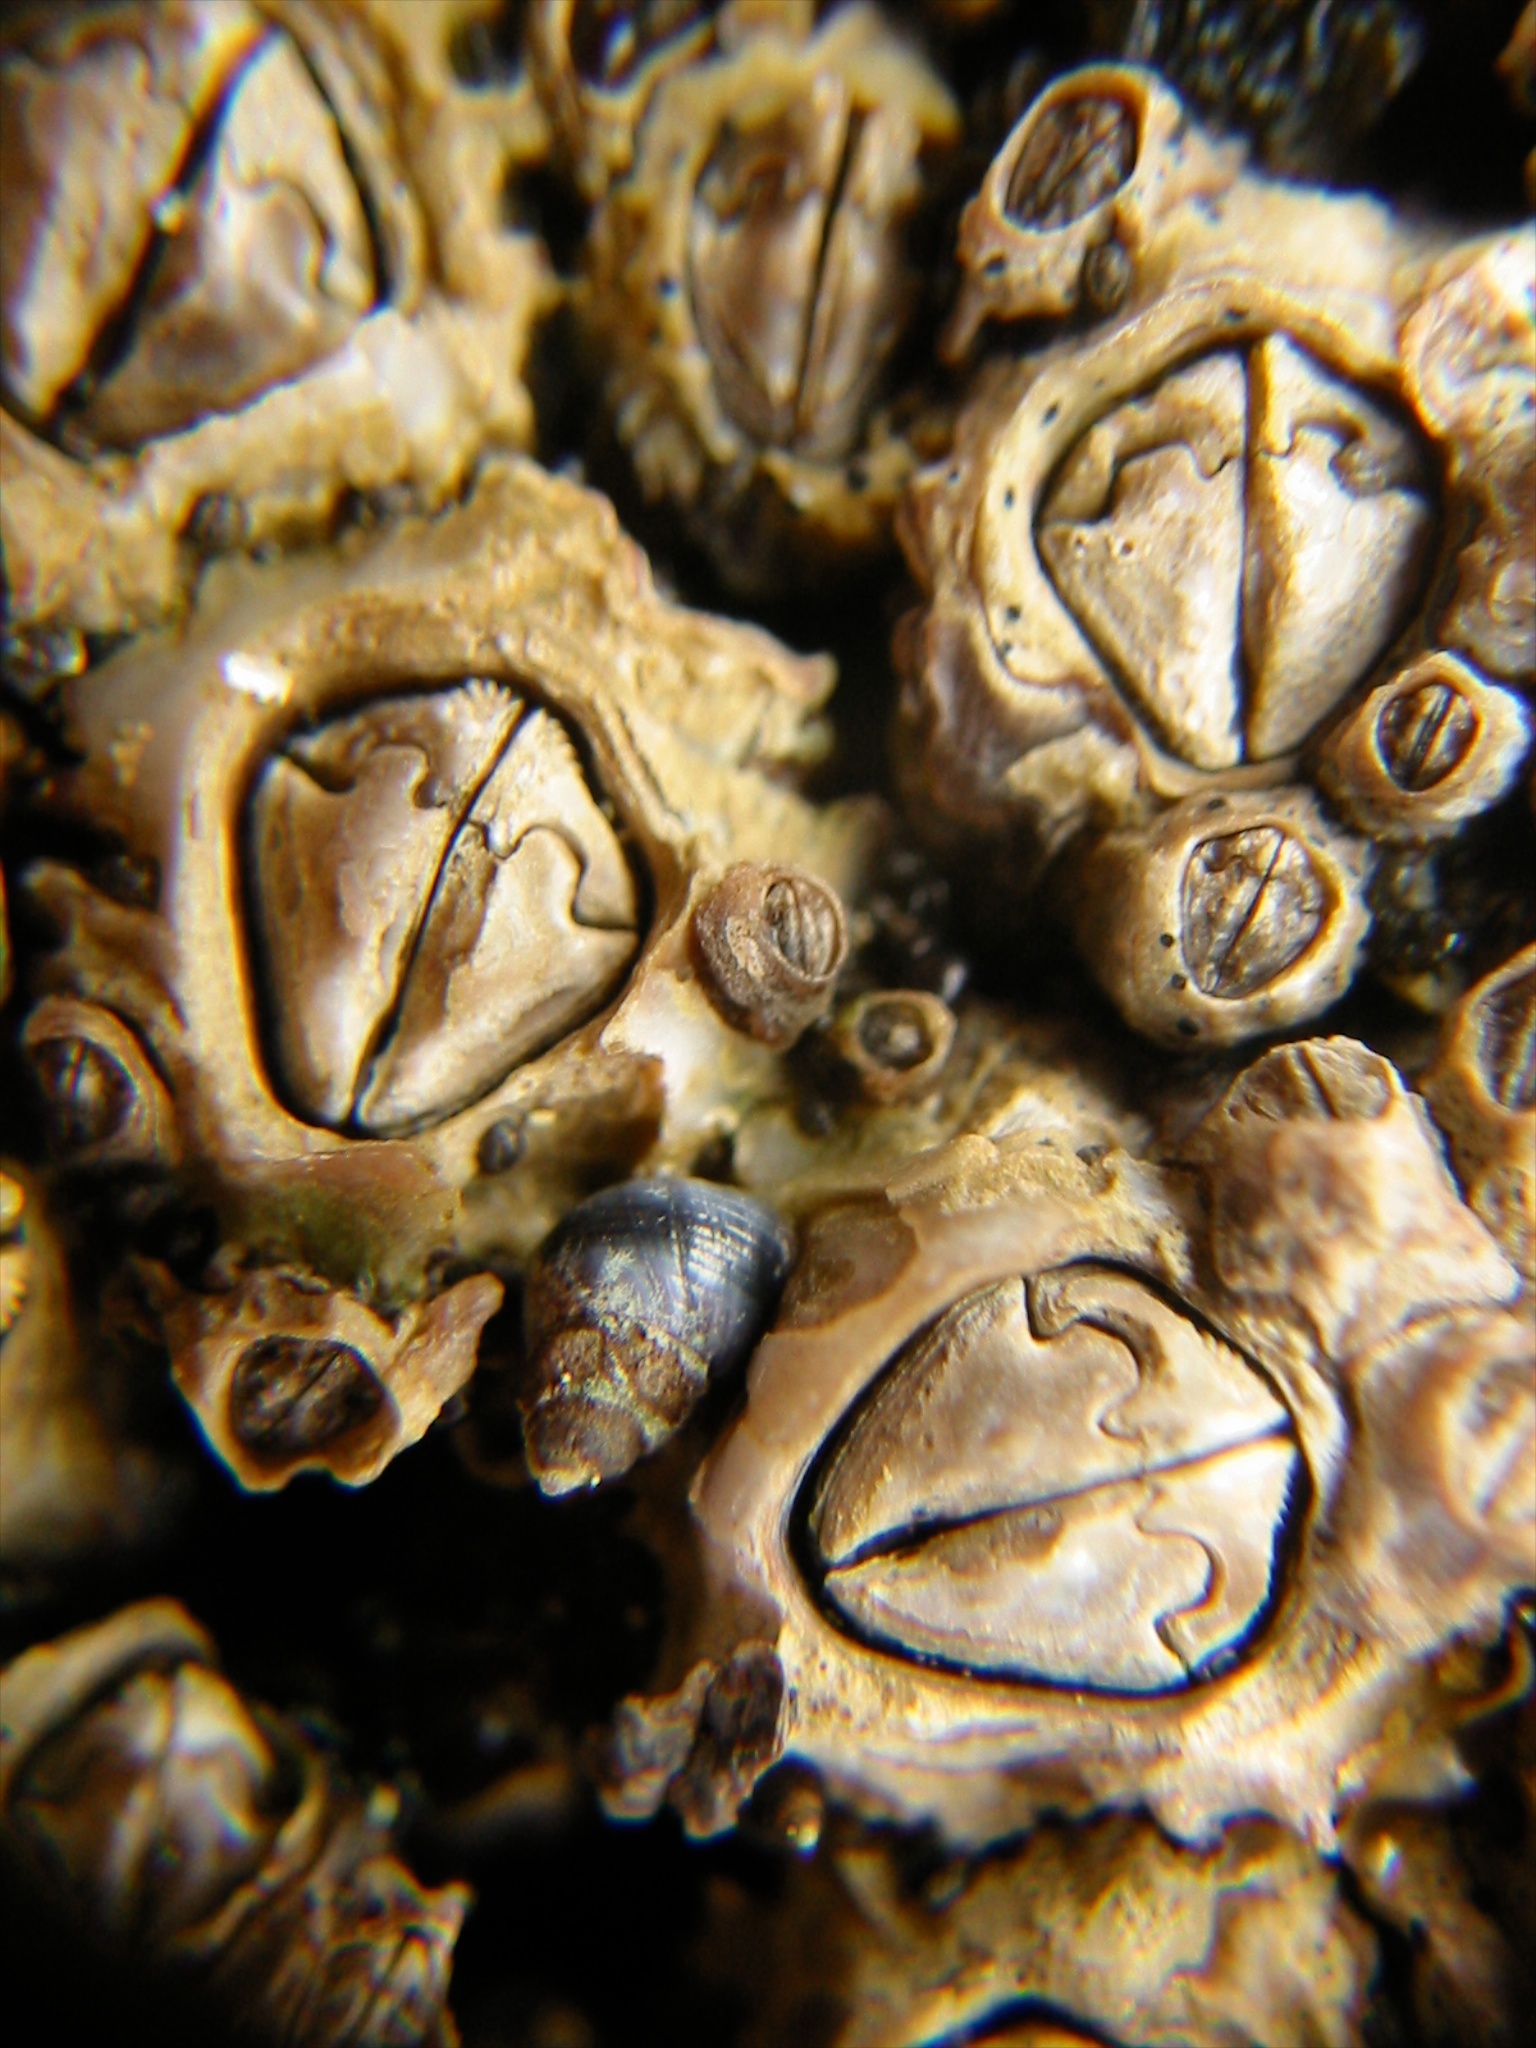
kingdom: Animalia
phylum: Arthropoda
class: Maxillopoda
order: Sessilia
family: Chthamalidae
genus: Chamaesipho
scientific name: Chamaesipho brunnea
